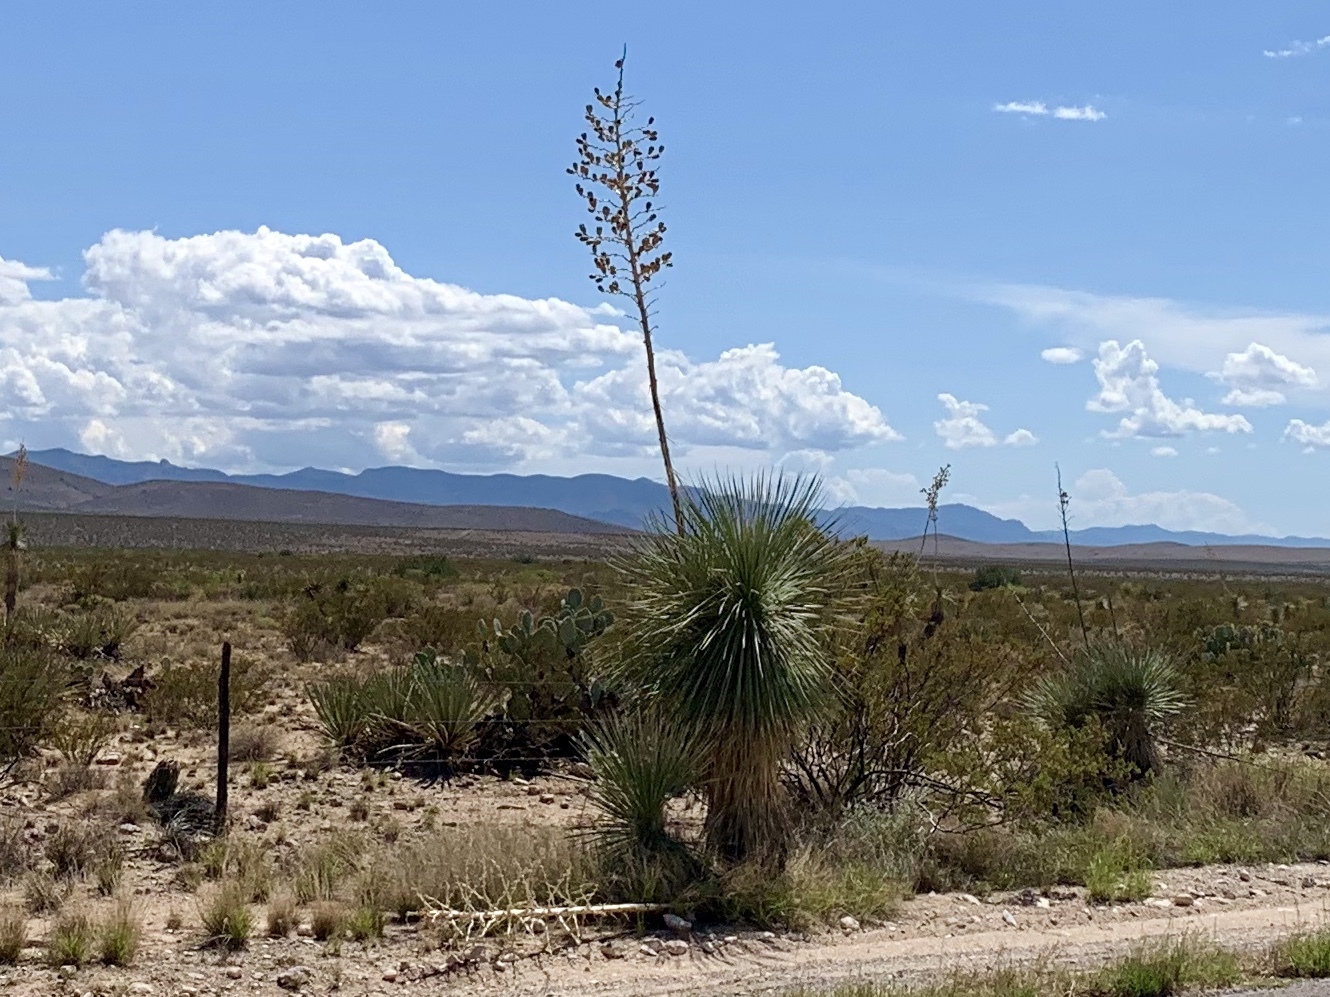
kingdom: Plantae
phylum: Tracheophyta
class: Liliopsida
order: Asparagales
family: Asparagaceae
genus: Yucca
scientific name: Yucca elata
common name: Palmella
